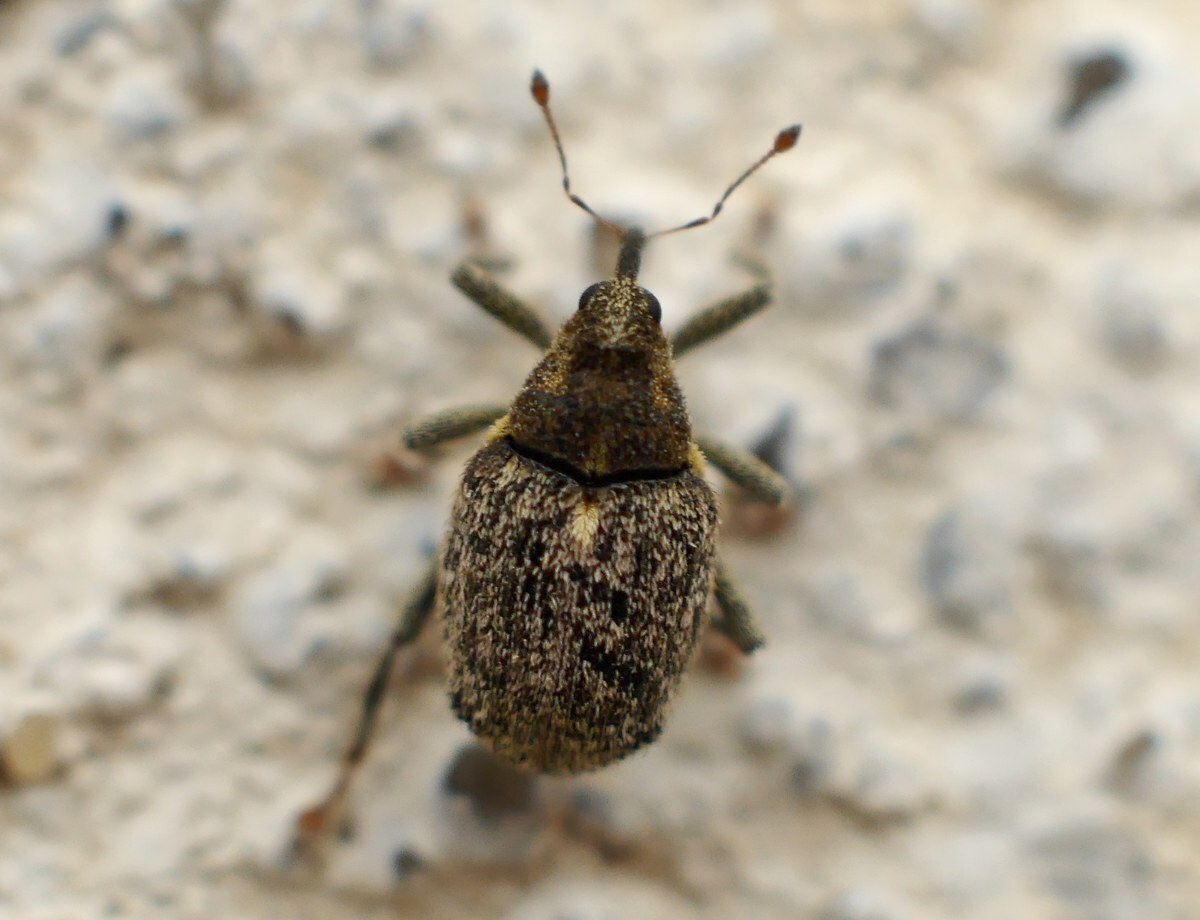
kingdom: Animalia
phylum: Arthropoda
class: Insecta
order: Coleoptera
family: Curculionidae
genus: Ceutorhynchus
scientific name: Ceutorhynchus pallidactylus
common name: Cabbage stem weavil
